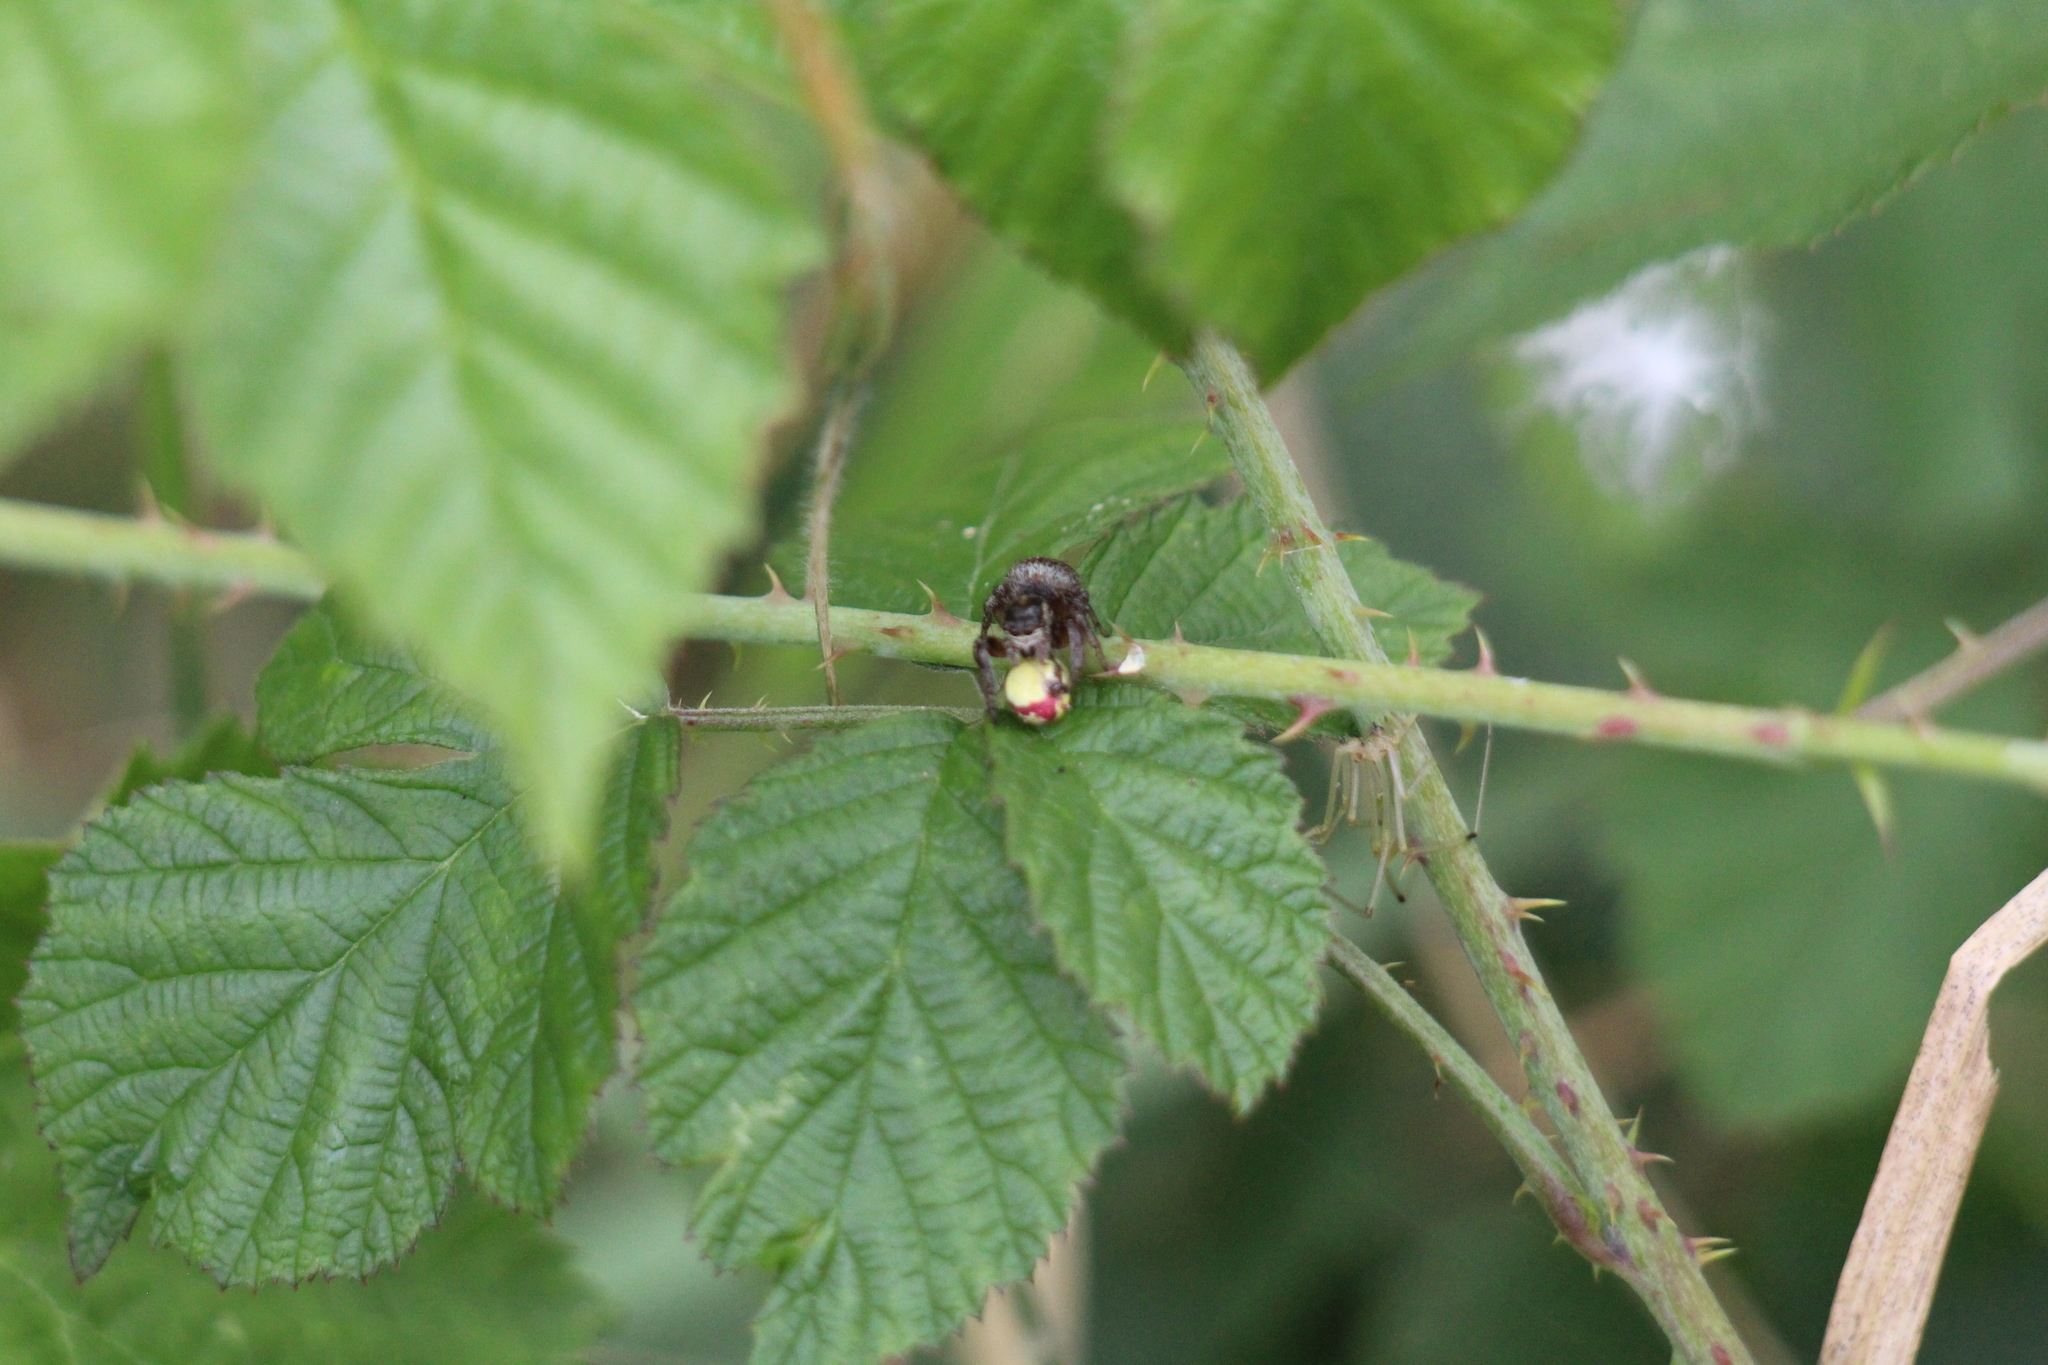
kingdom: Animalia
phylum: Arthropoda
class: Arachnida
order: Araneae
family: Salticidae
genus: Evarcha
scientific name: Evarcha arcuata
